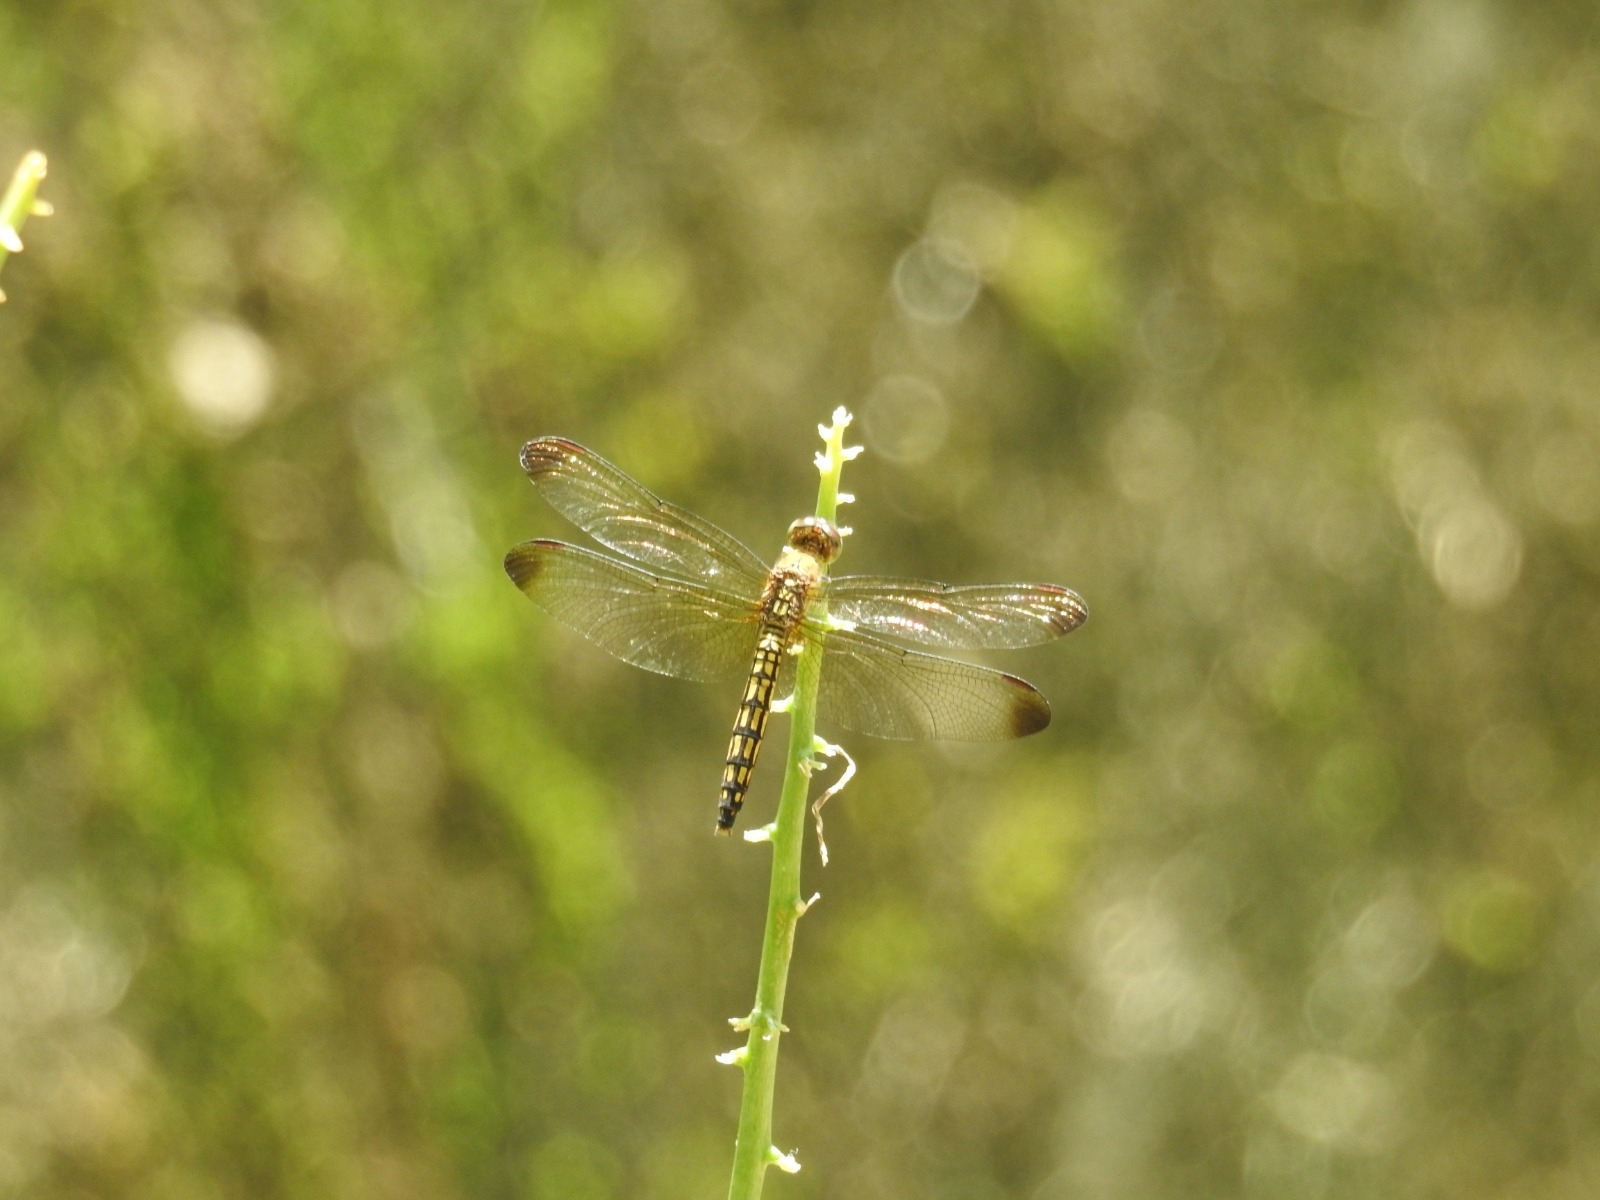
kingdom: Animalia
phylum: Arthropoda
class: Insecta
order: Odonata
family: Libellulidae
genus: Neurothemis
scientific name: Neurothemis ramburii
